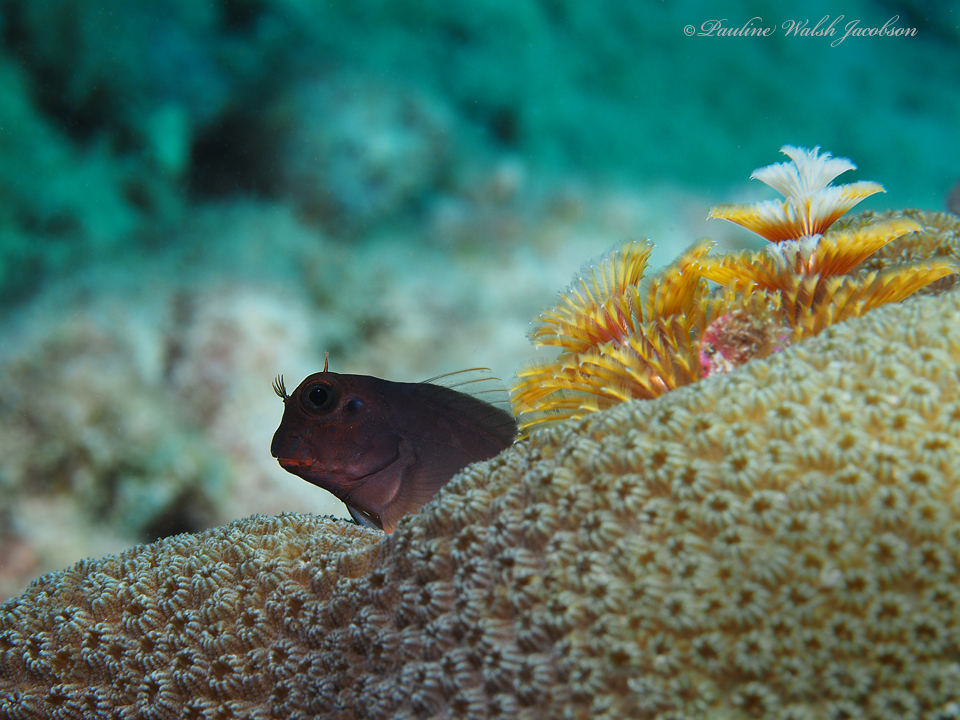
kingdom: Animalia
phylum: Chordata
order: Perciformes
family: Blenniidae
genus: Ophioblennius
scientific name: Ophioblennius macclurei
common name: Redlip blenny
